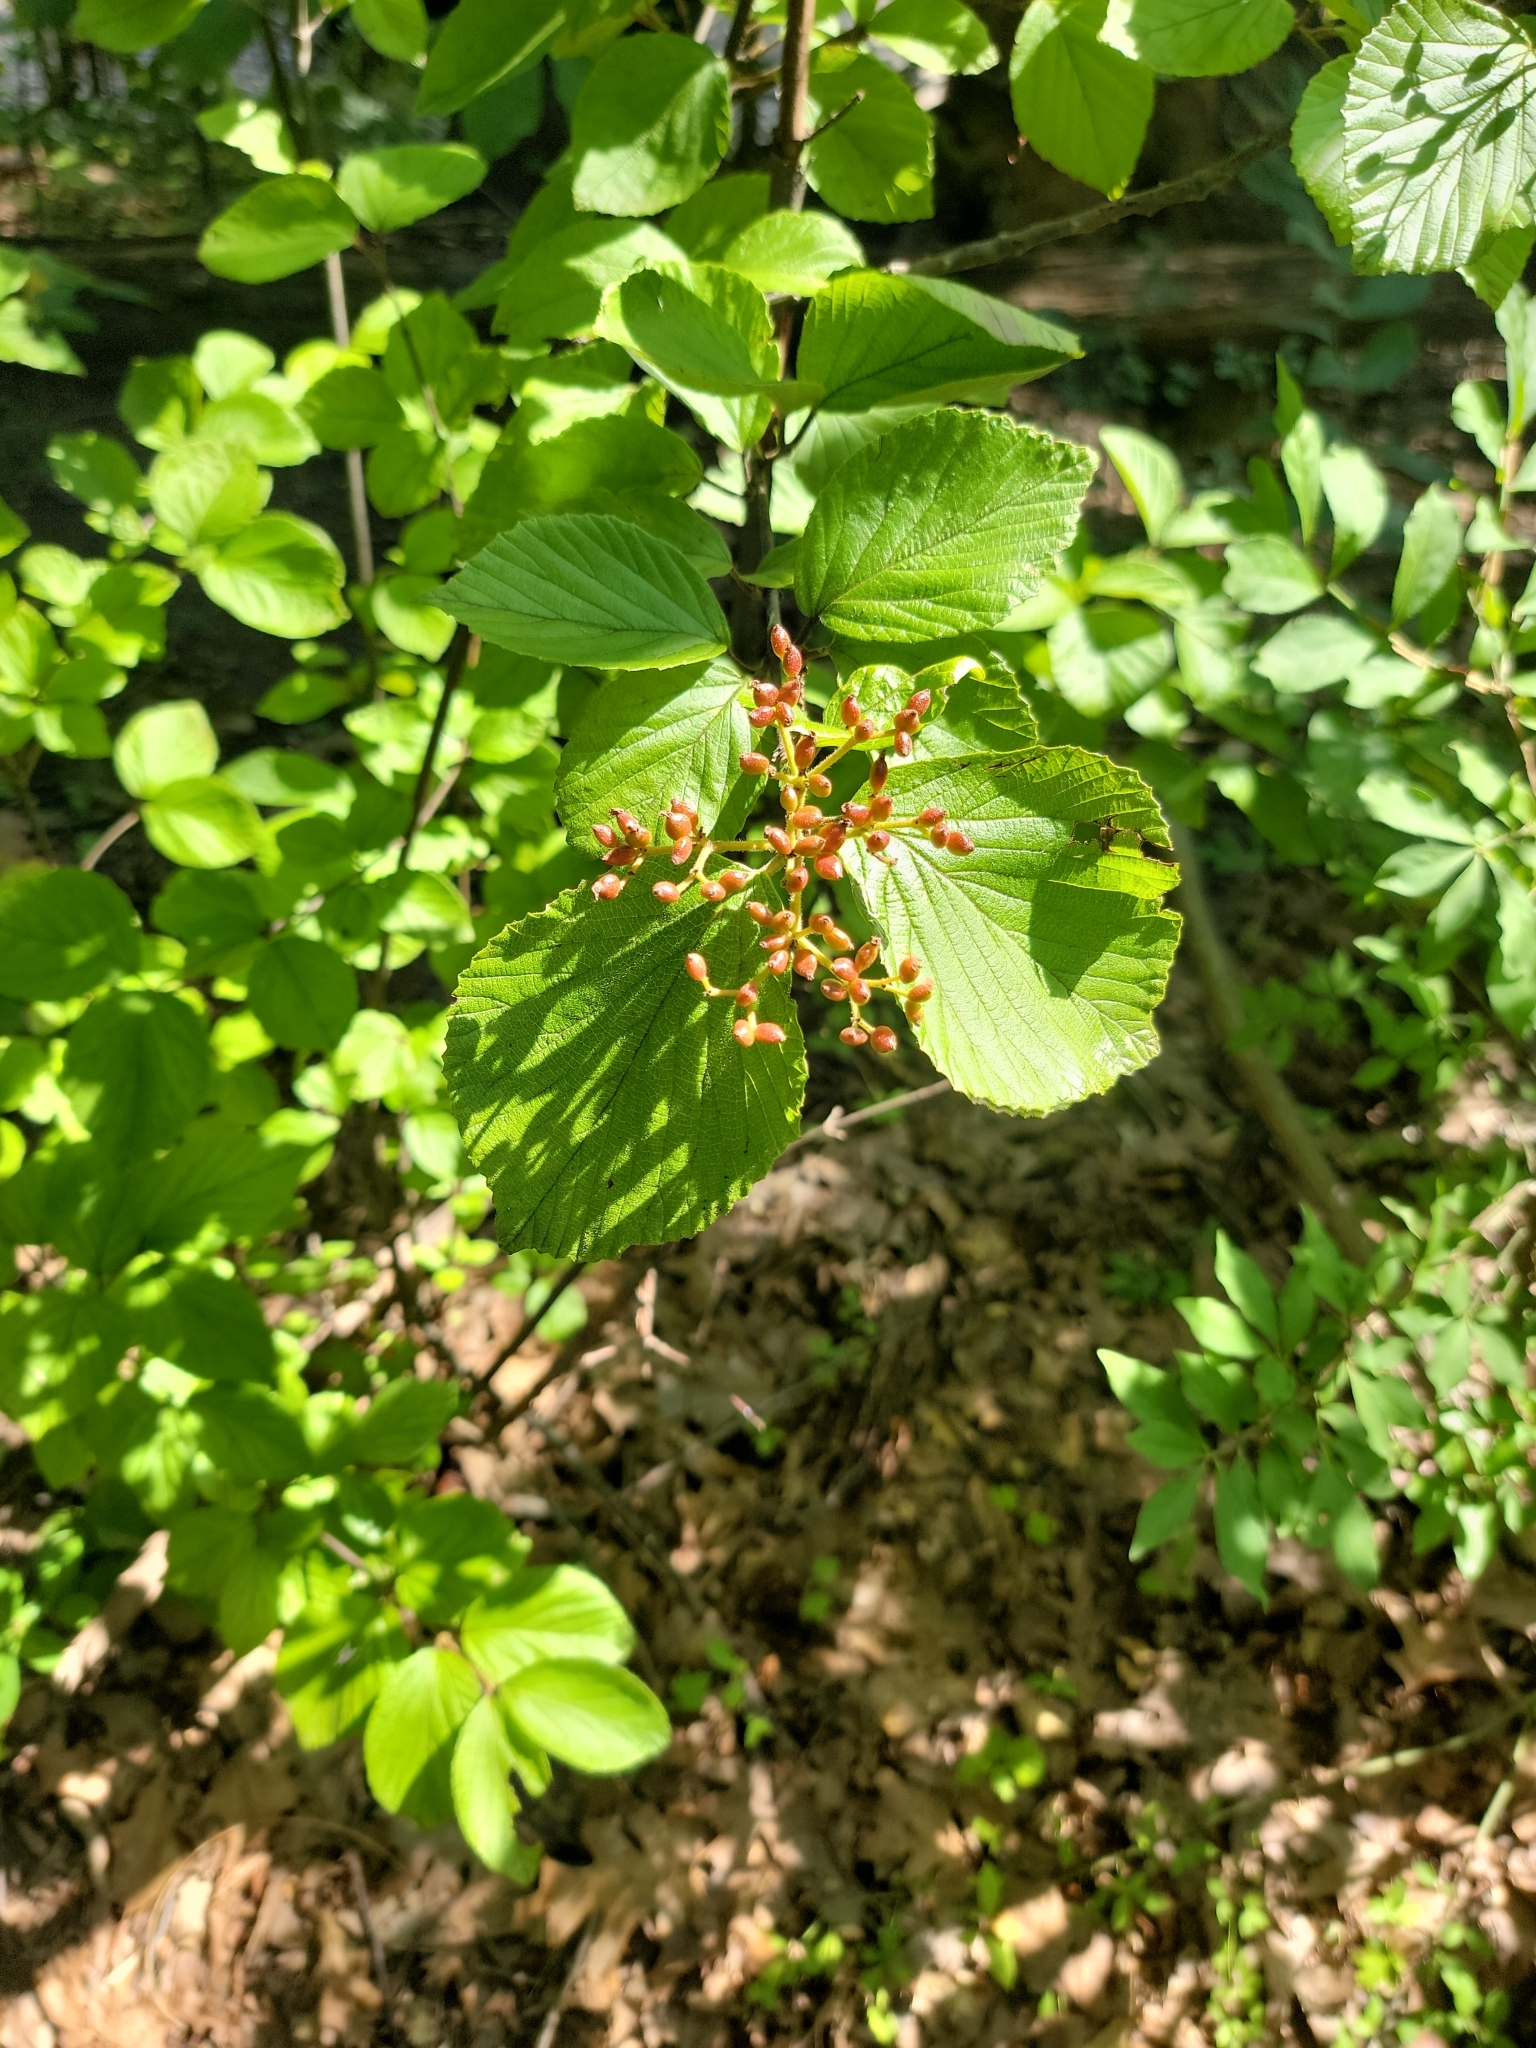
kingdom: Plantae
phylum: Tracheophyta
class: Magnoliopsida
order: Dipsacales
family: Viburnaceae
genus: Viburnum
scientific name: Viburnum dilatatum
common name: Linden arrowwood
